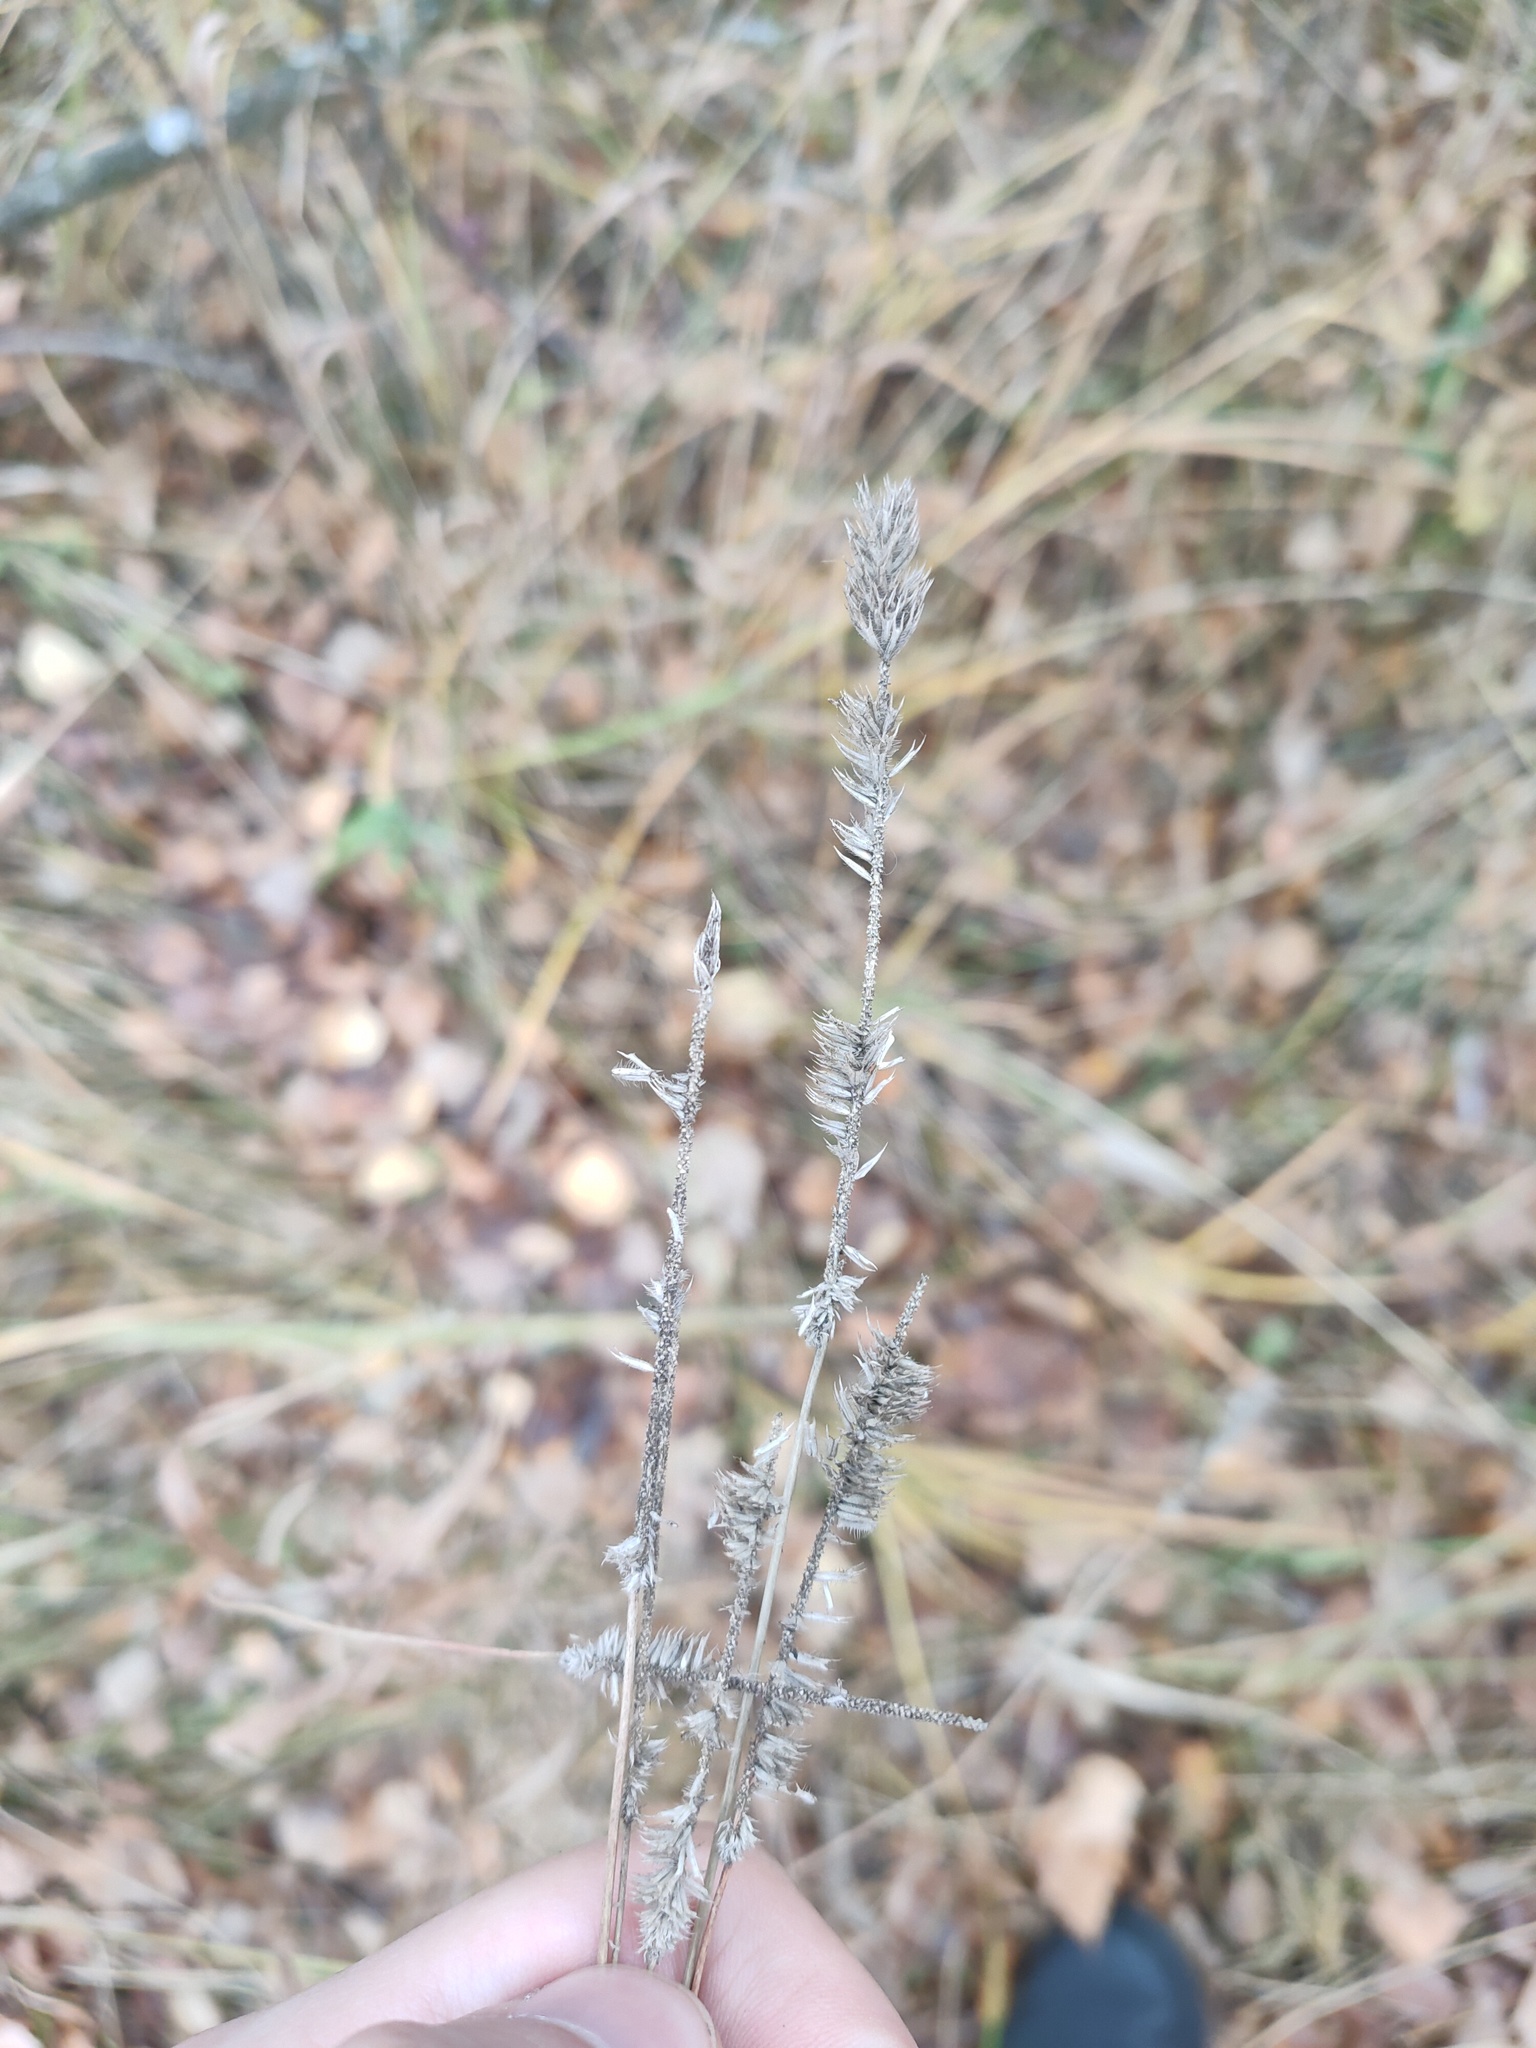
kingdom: Plantae
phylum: Tracheophyta
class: Liliopsida
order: Poales
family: Poaceae
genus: Phleum
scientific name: Phleum pratense
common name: Timothy grass
